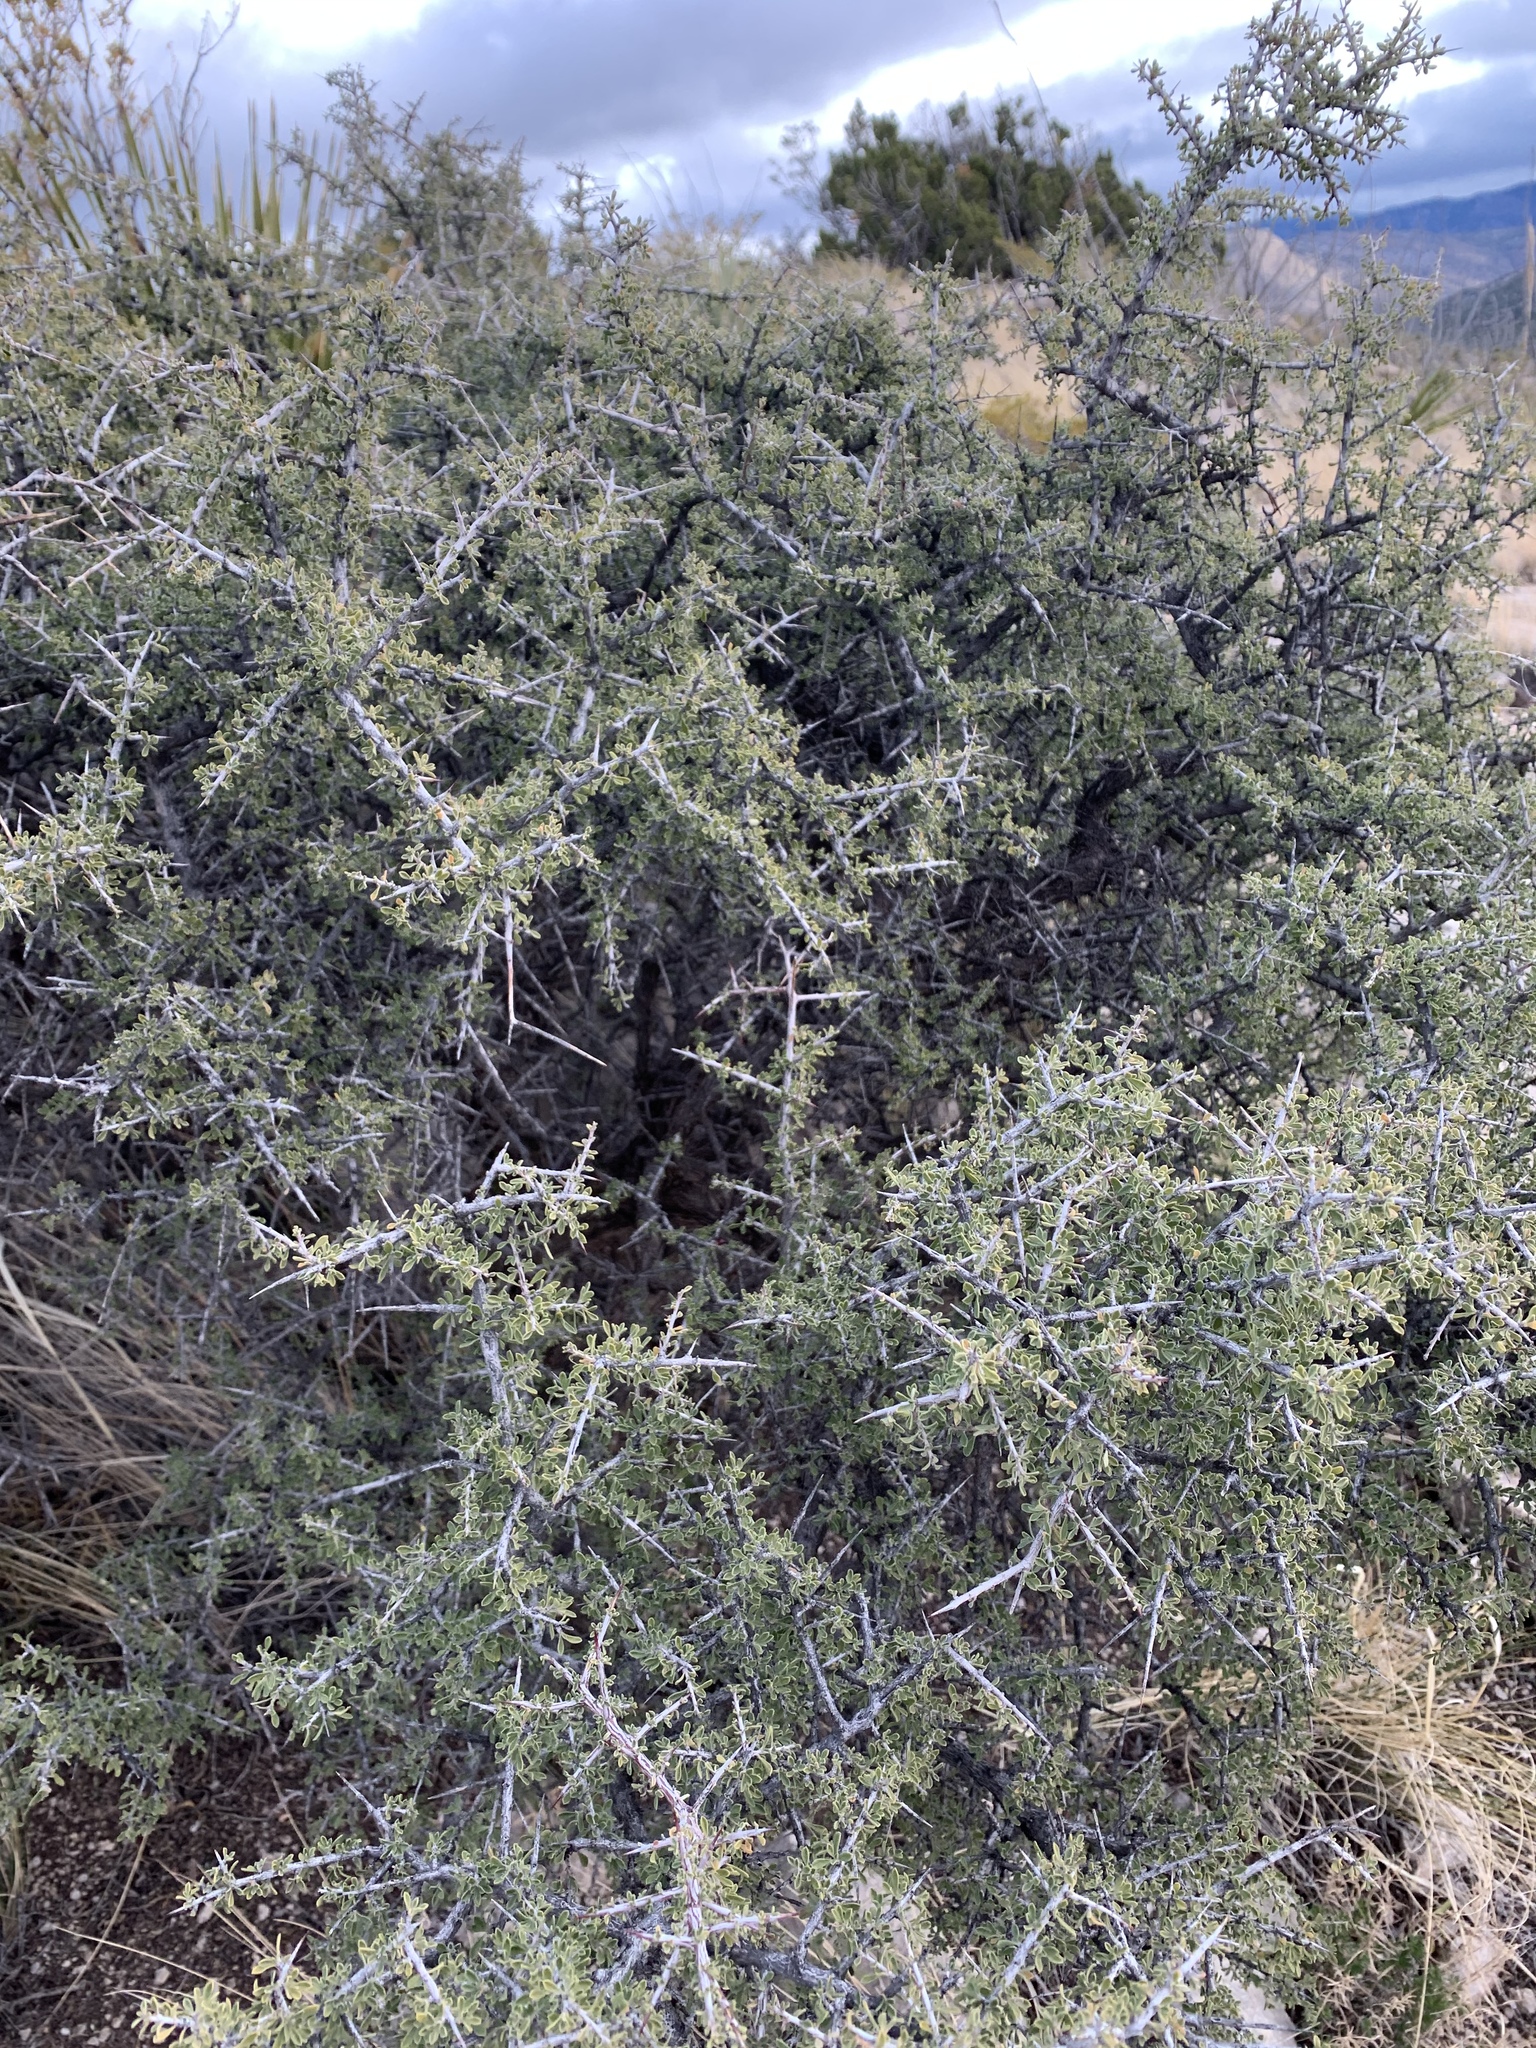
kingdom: Plantae
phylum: Tracheophyta
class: Magnoliopsida
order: Rosales
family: Rhamnaceae
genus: Condalia
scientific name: Condalia warnockii
